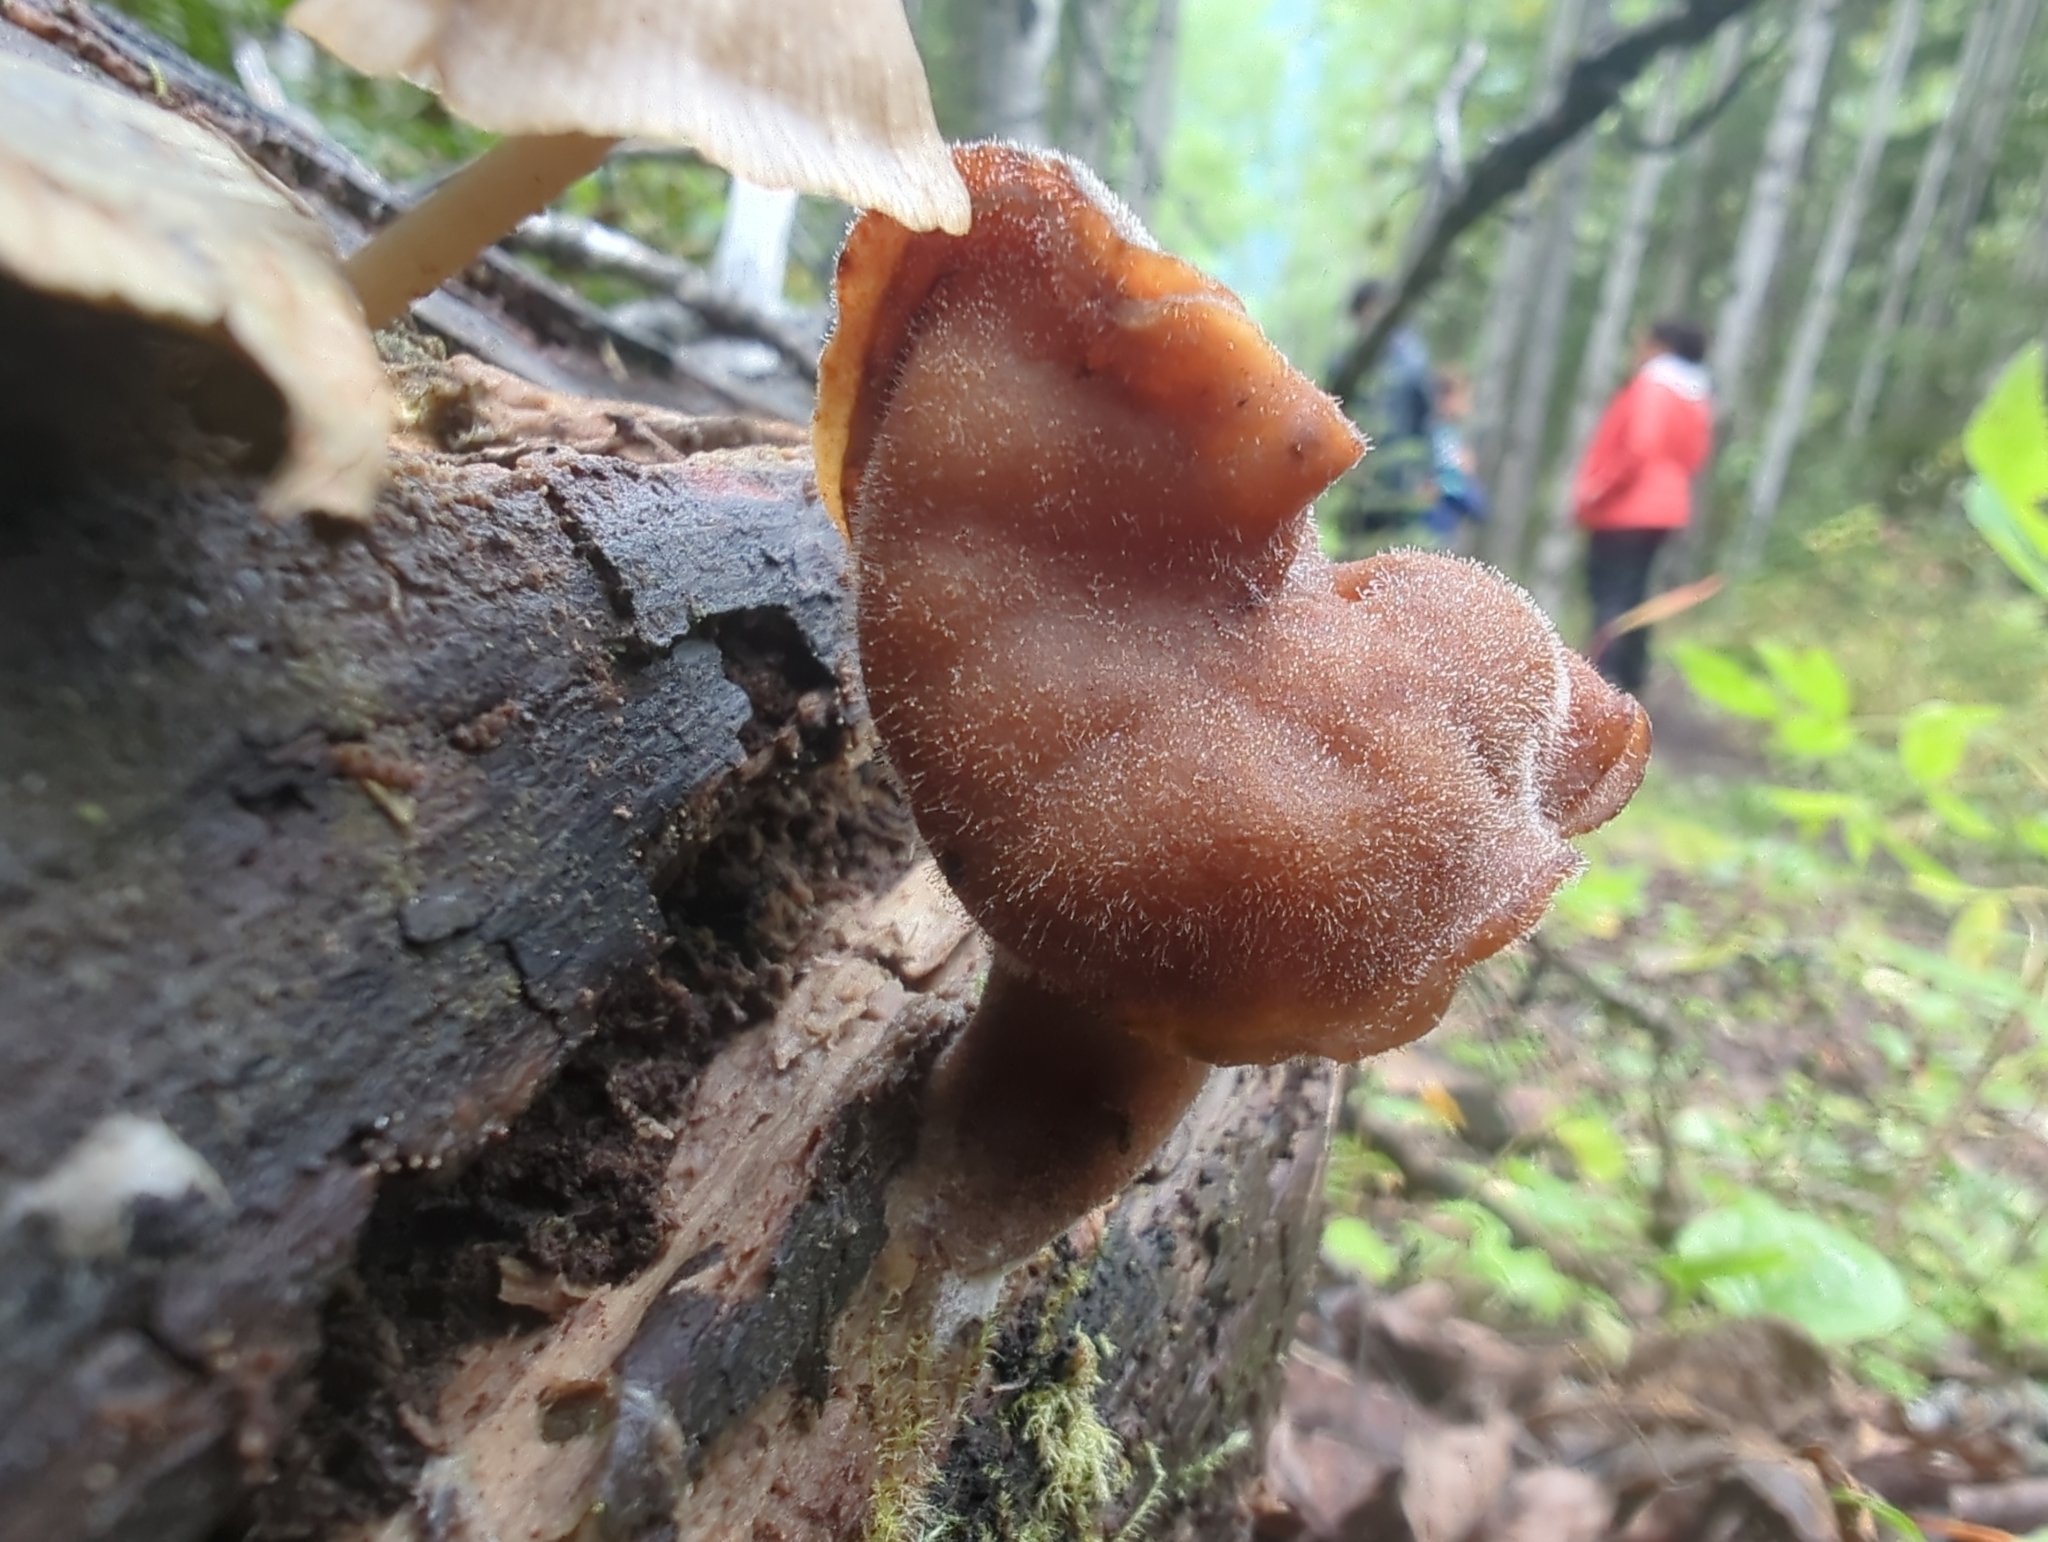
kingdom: Fungi
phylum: Ascomycota
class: Pezizomycetes
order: Pezizales
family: Discinaceae
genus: Gyromitra
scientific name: Gyromitra infula
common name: Pouched false morel
